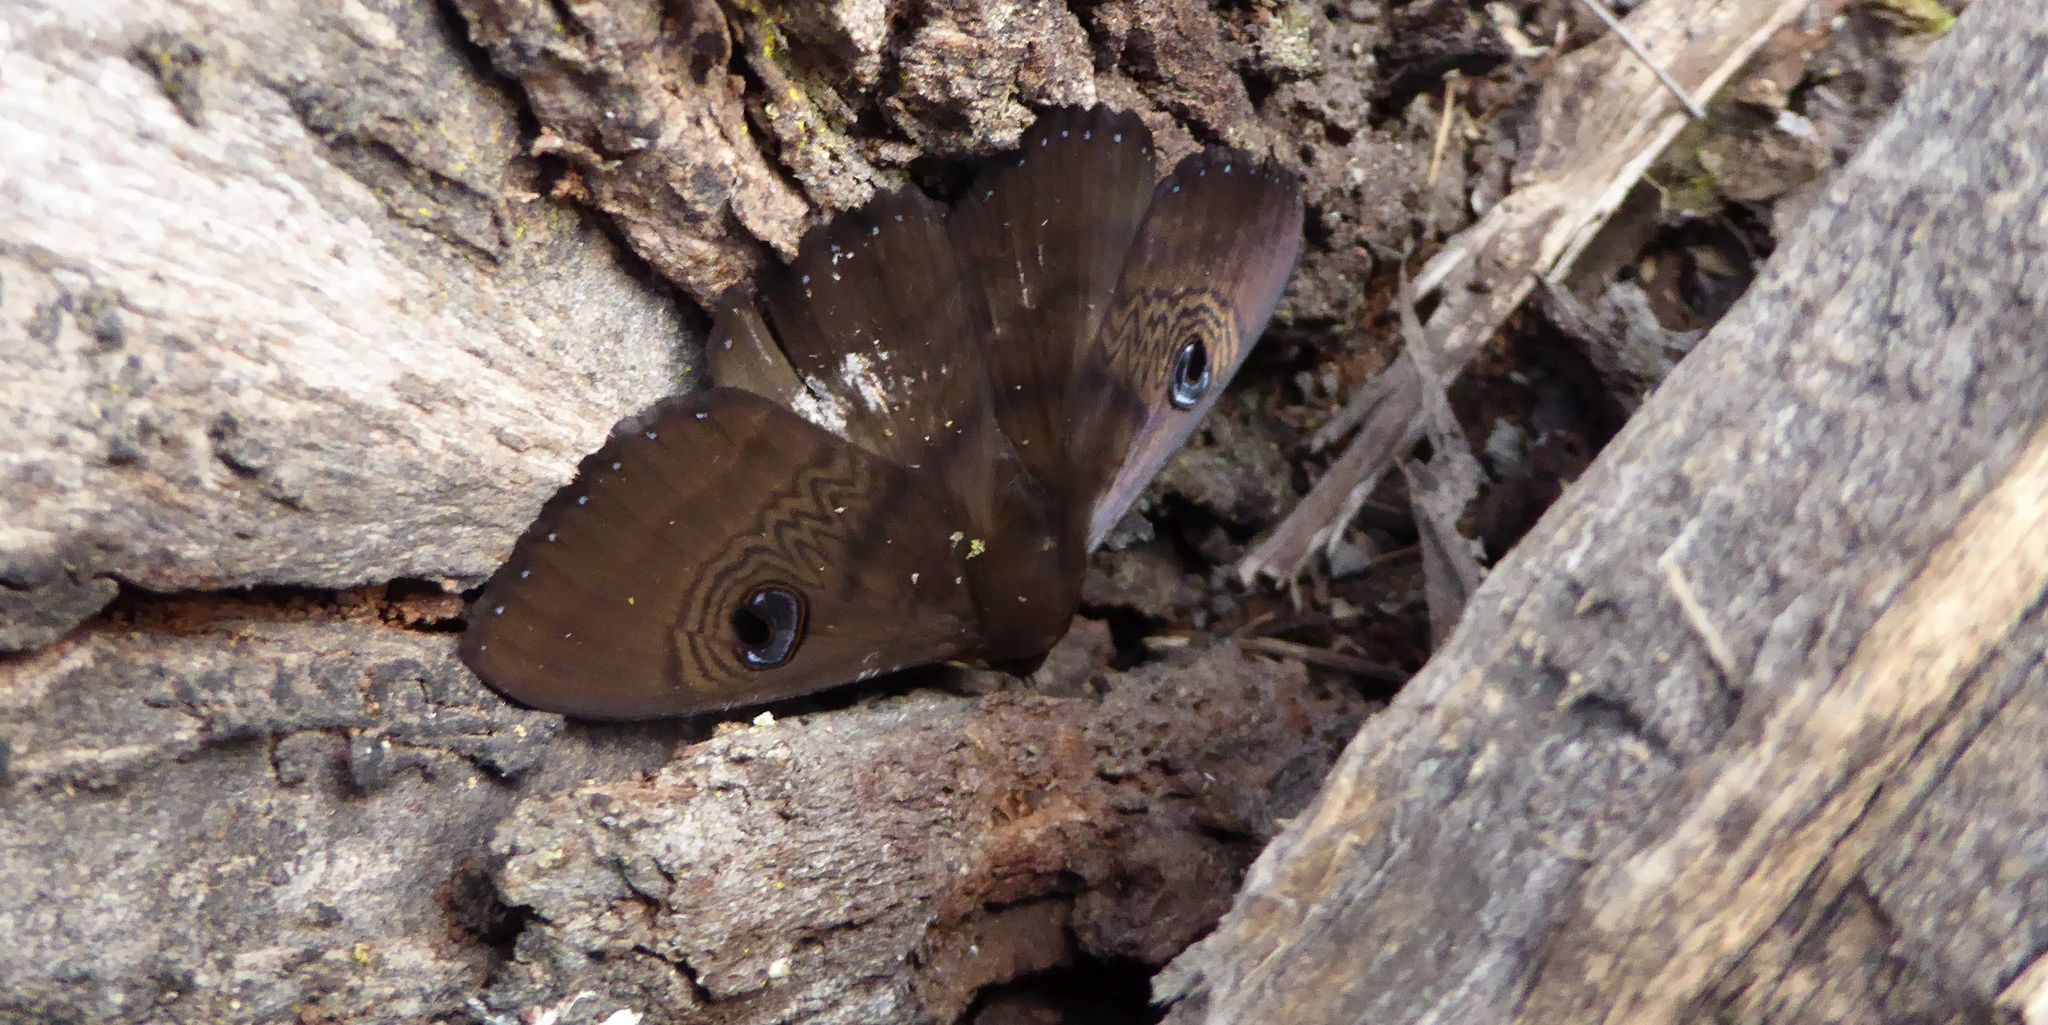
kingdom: Animalia
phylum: Arthropoda
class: Insecta
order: Lepidoptera
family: Erebidae
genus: Dasypodia
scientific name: Dasypodia selenophora
